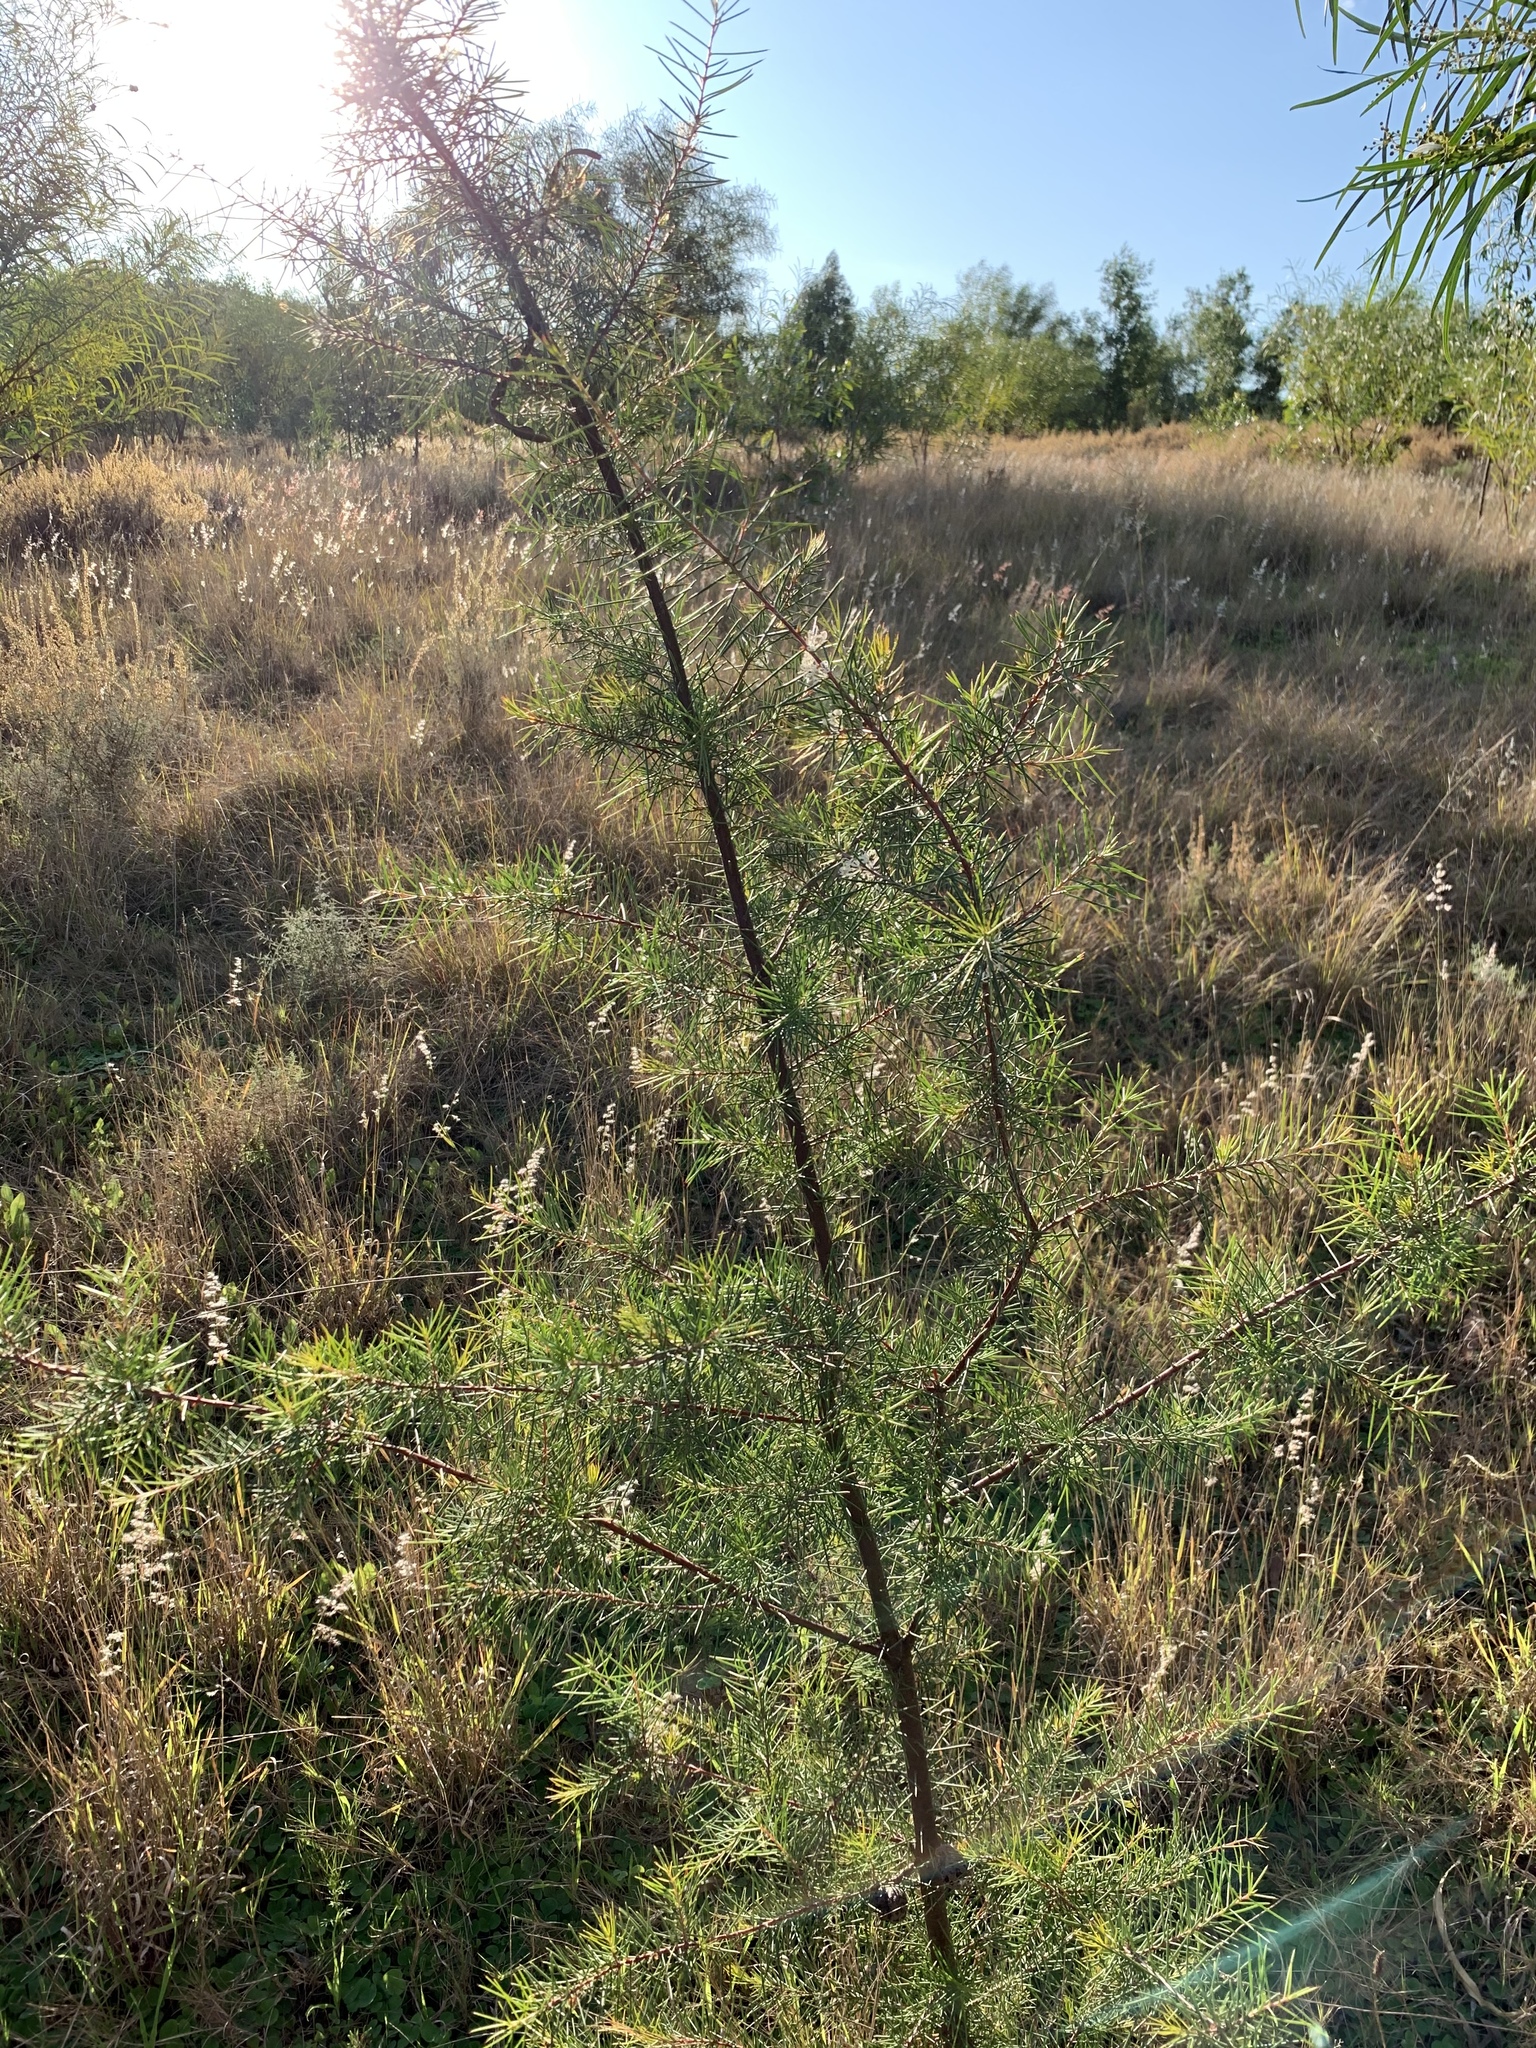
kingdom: Plantae
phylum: Tracheophyta
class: Magnoliopsida
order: Proteales
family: Proteaceae
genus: Hakea
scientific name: Hakea sericea
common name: Needle bush
